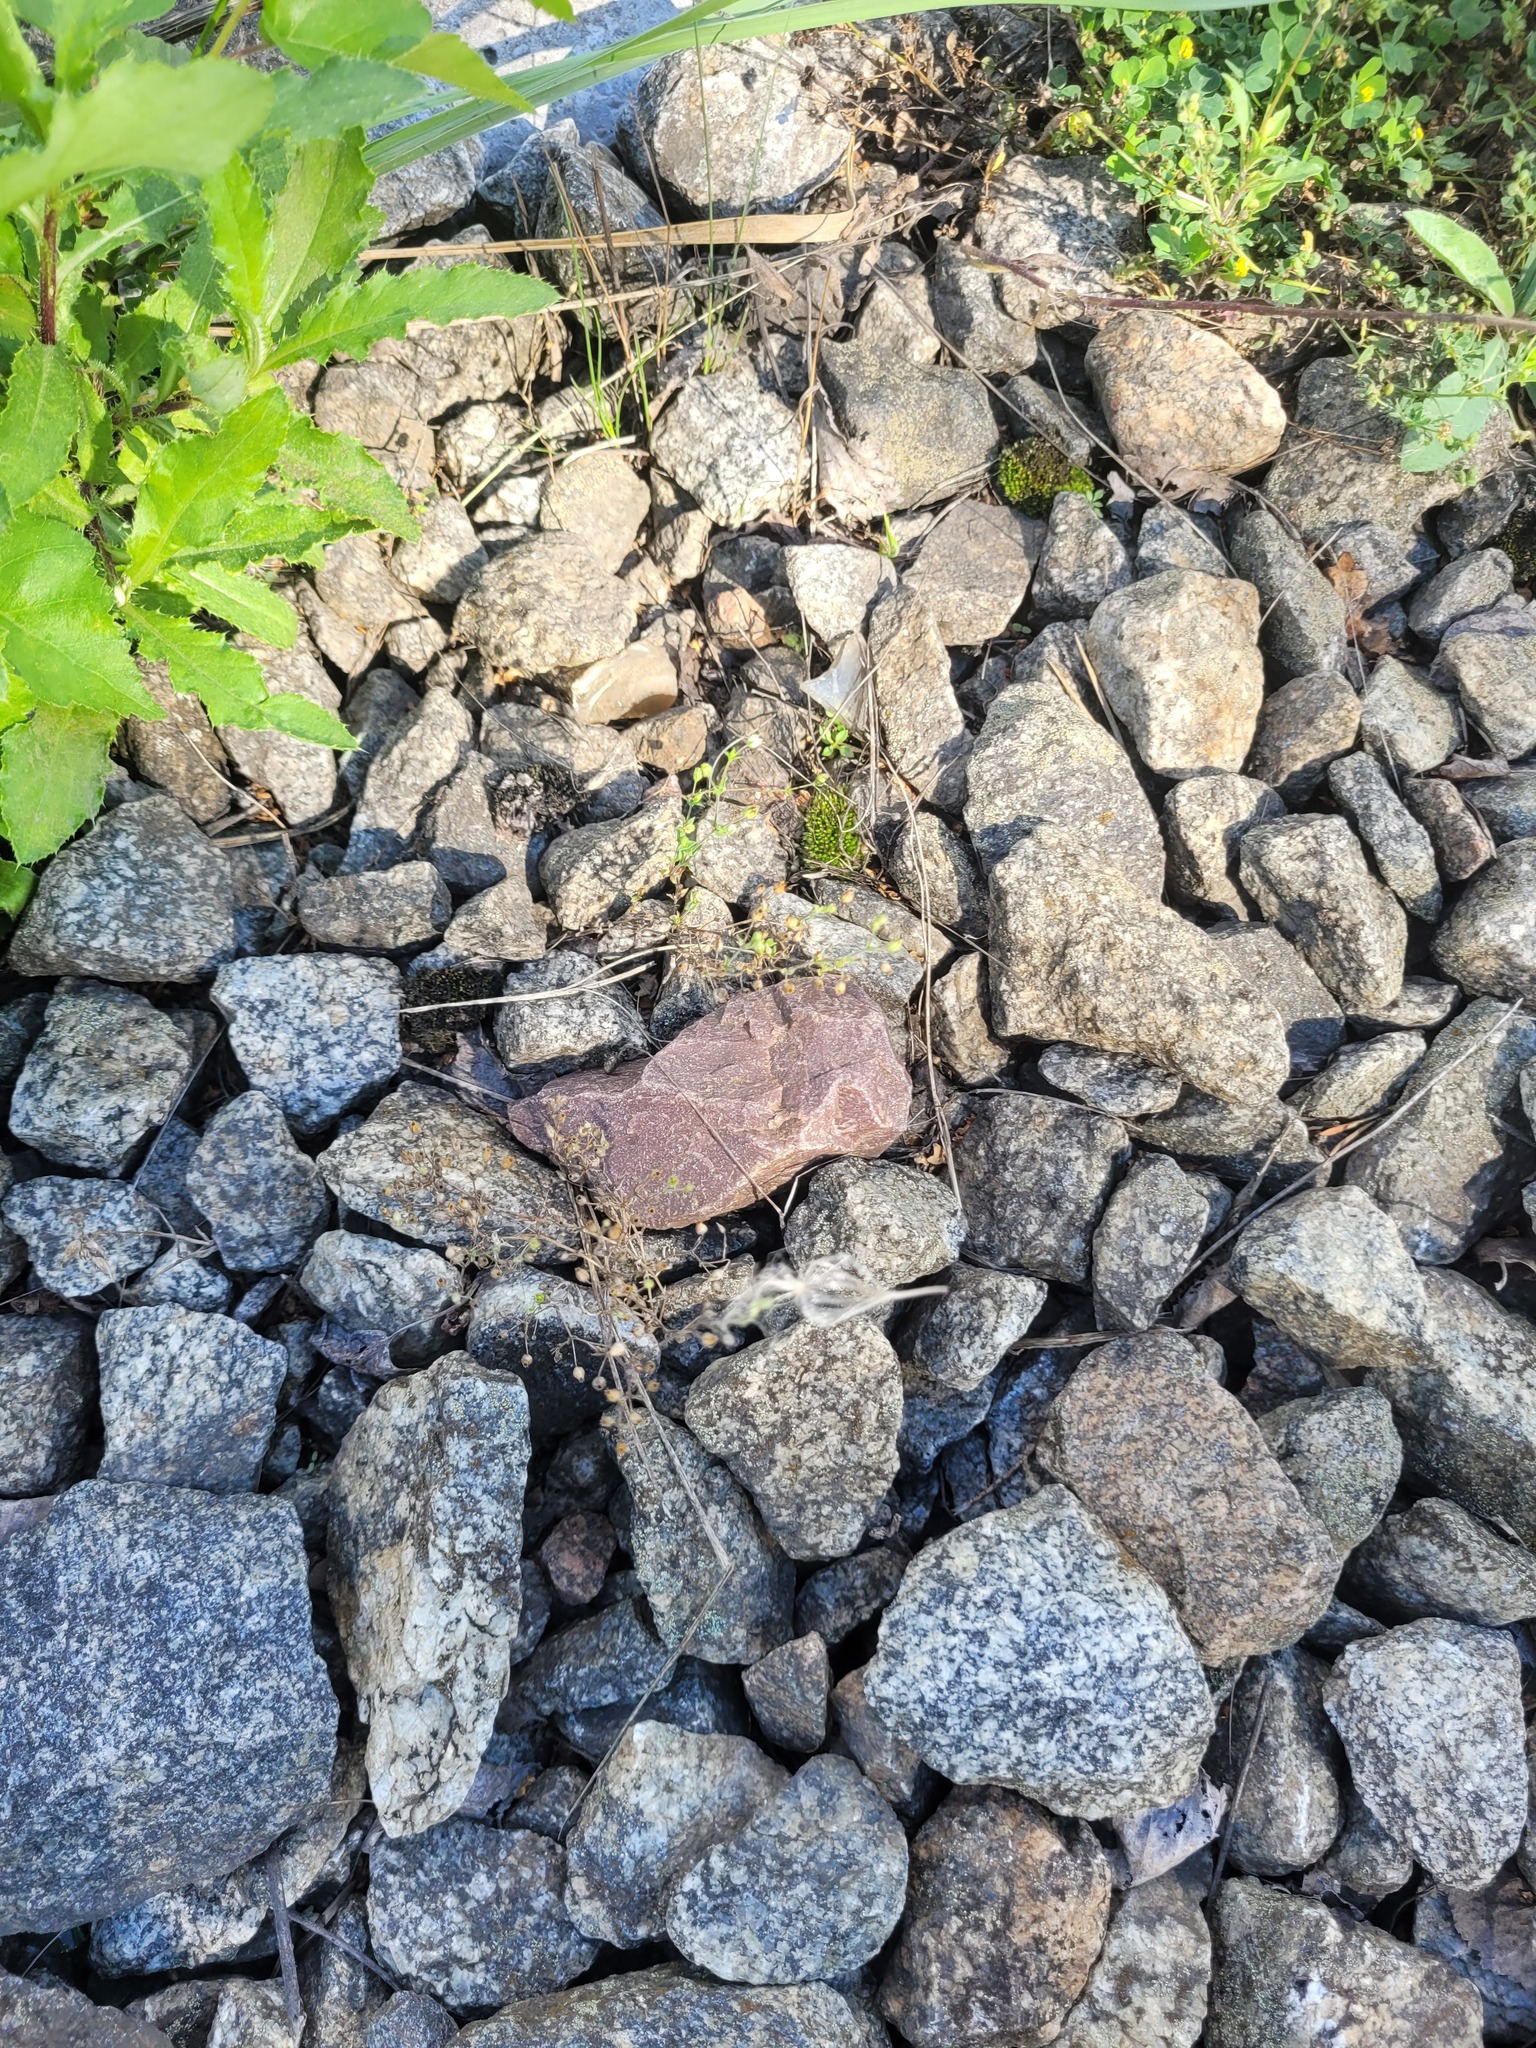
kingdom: Plantae
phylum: Tracheophyta
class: Magnoliopsida
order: Caryophyllales
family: Caryophyllaceae
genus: Arenaria
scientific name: Arenaria serpyllifolia
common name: Thyme-leaved sandwort
